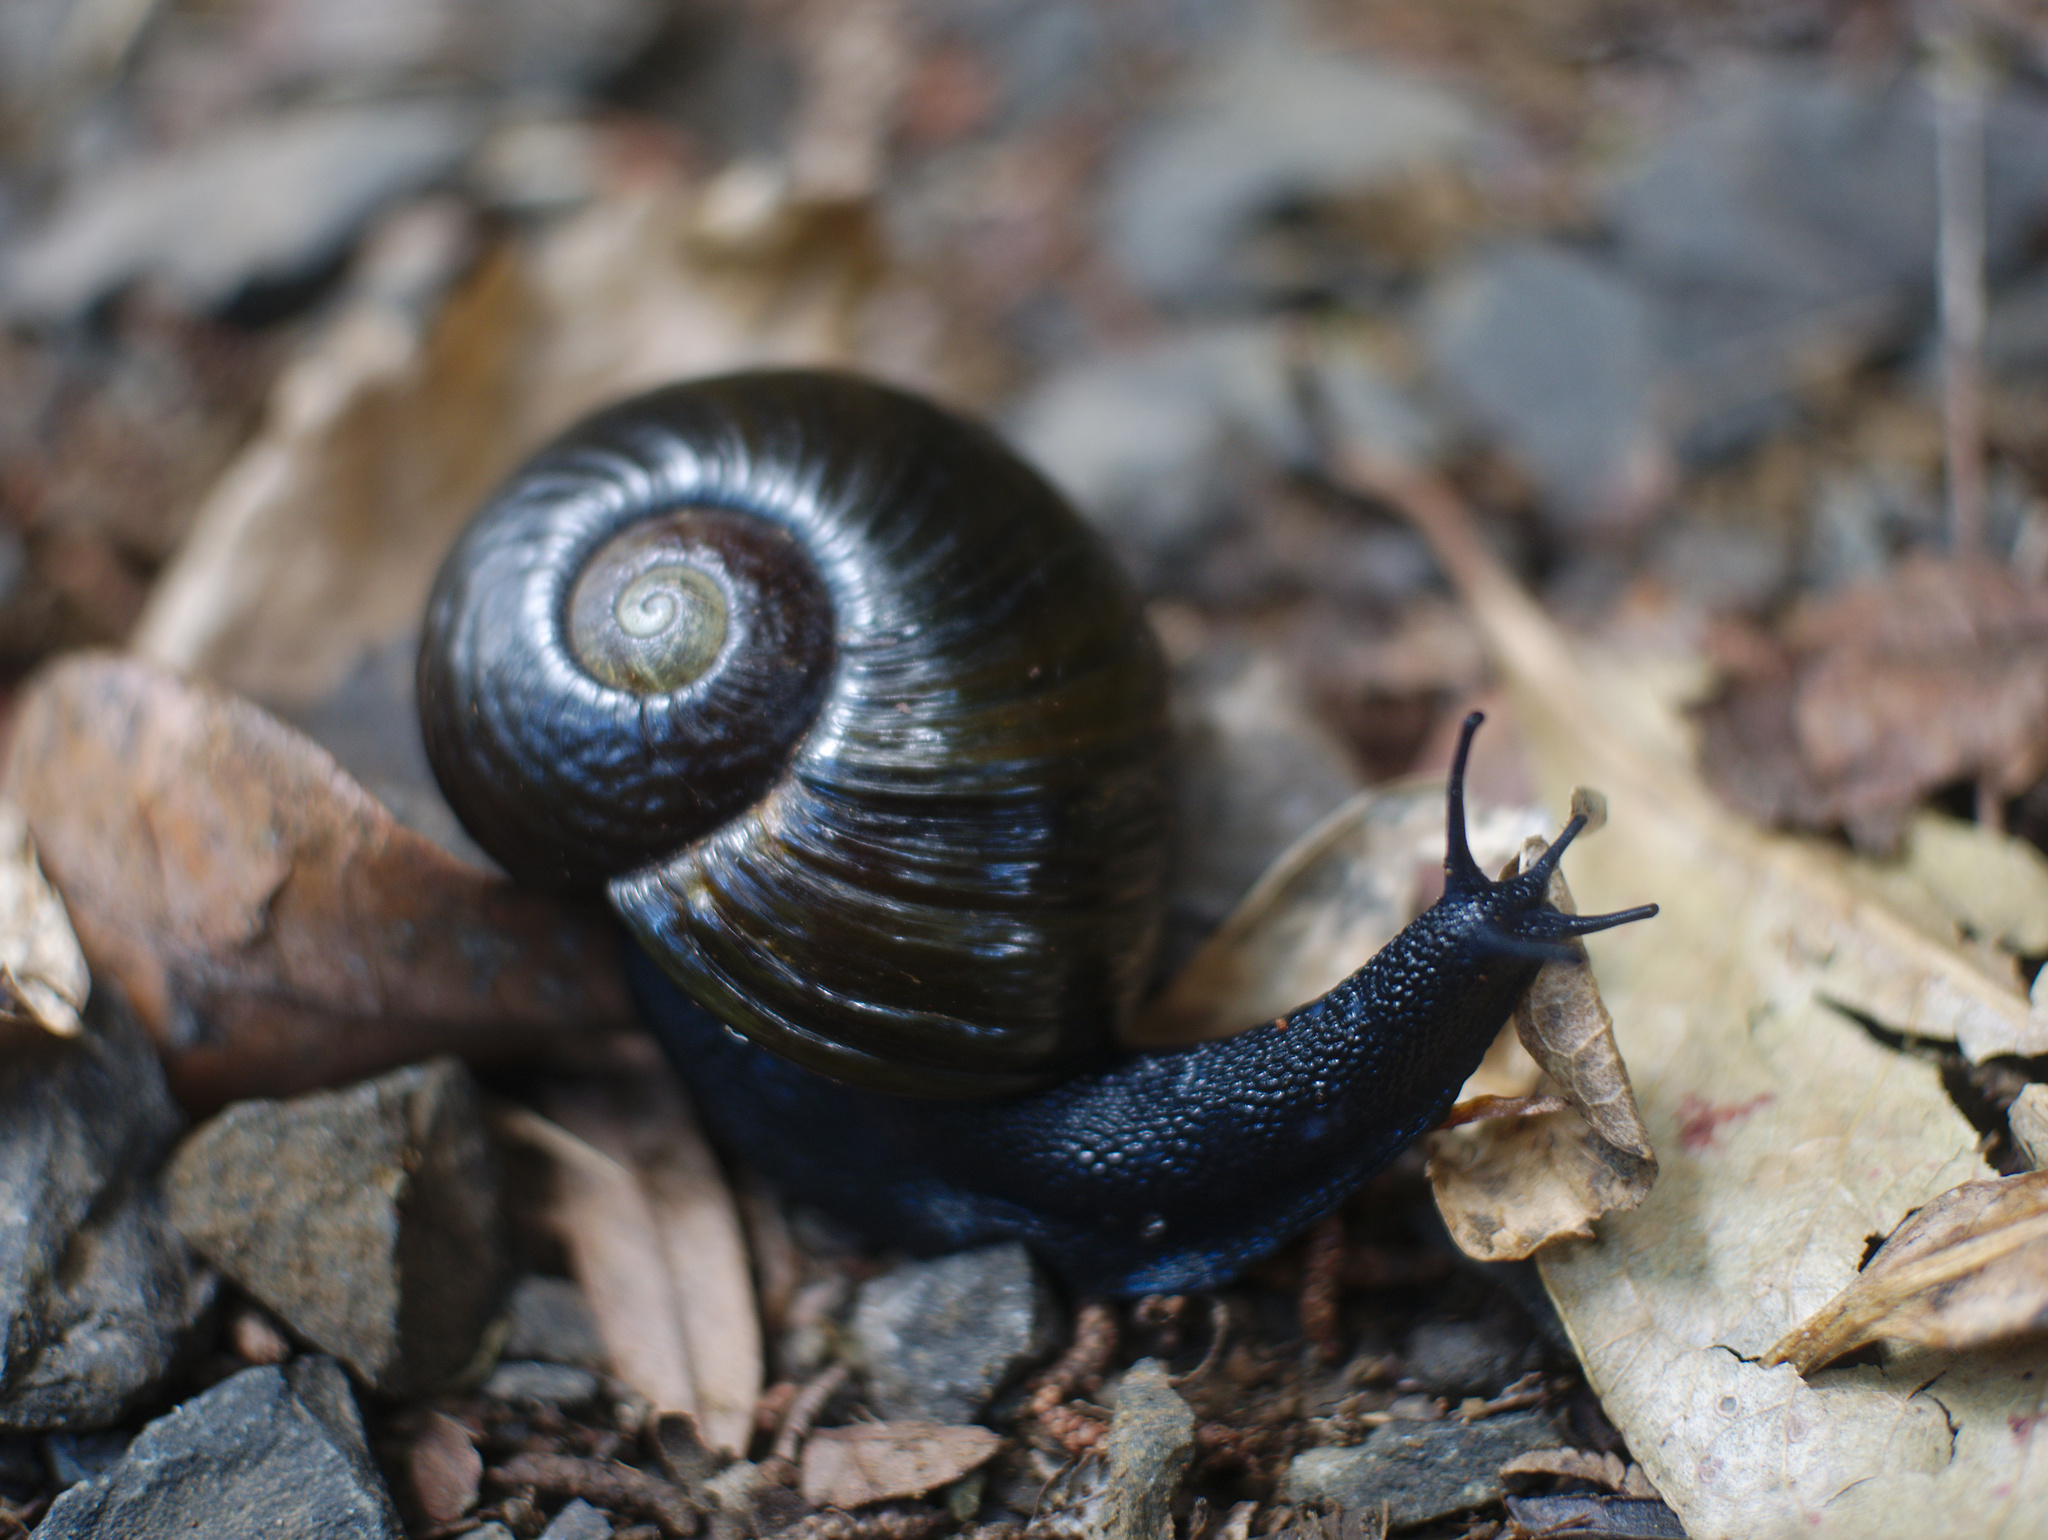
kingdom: Animalia
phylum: Mollusca
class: Gastropoda
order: Stylommatophora
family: Rhytididae
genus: Paryphanta
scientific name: Paryphanta busbyi
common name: Kauri snail
